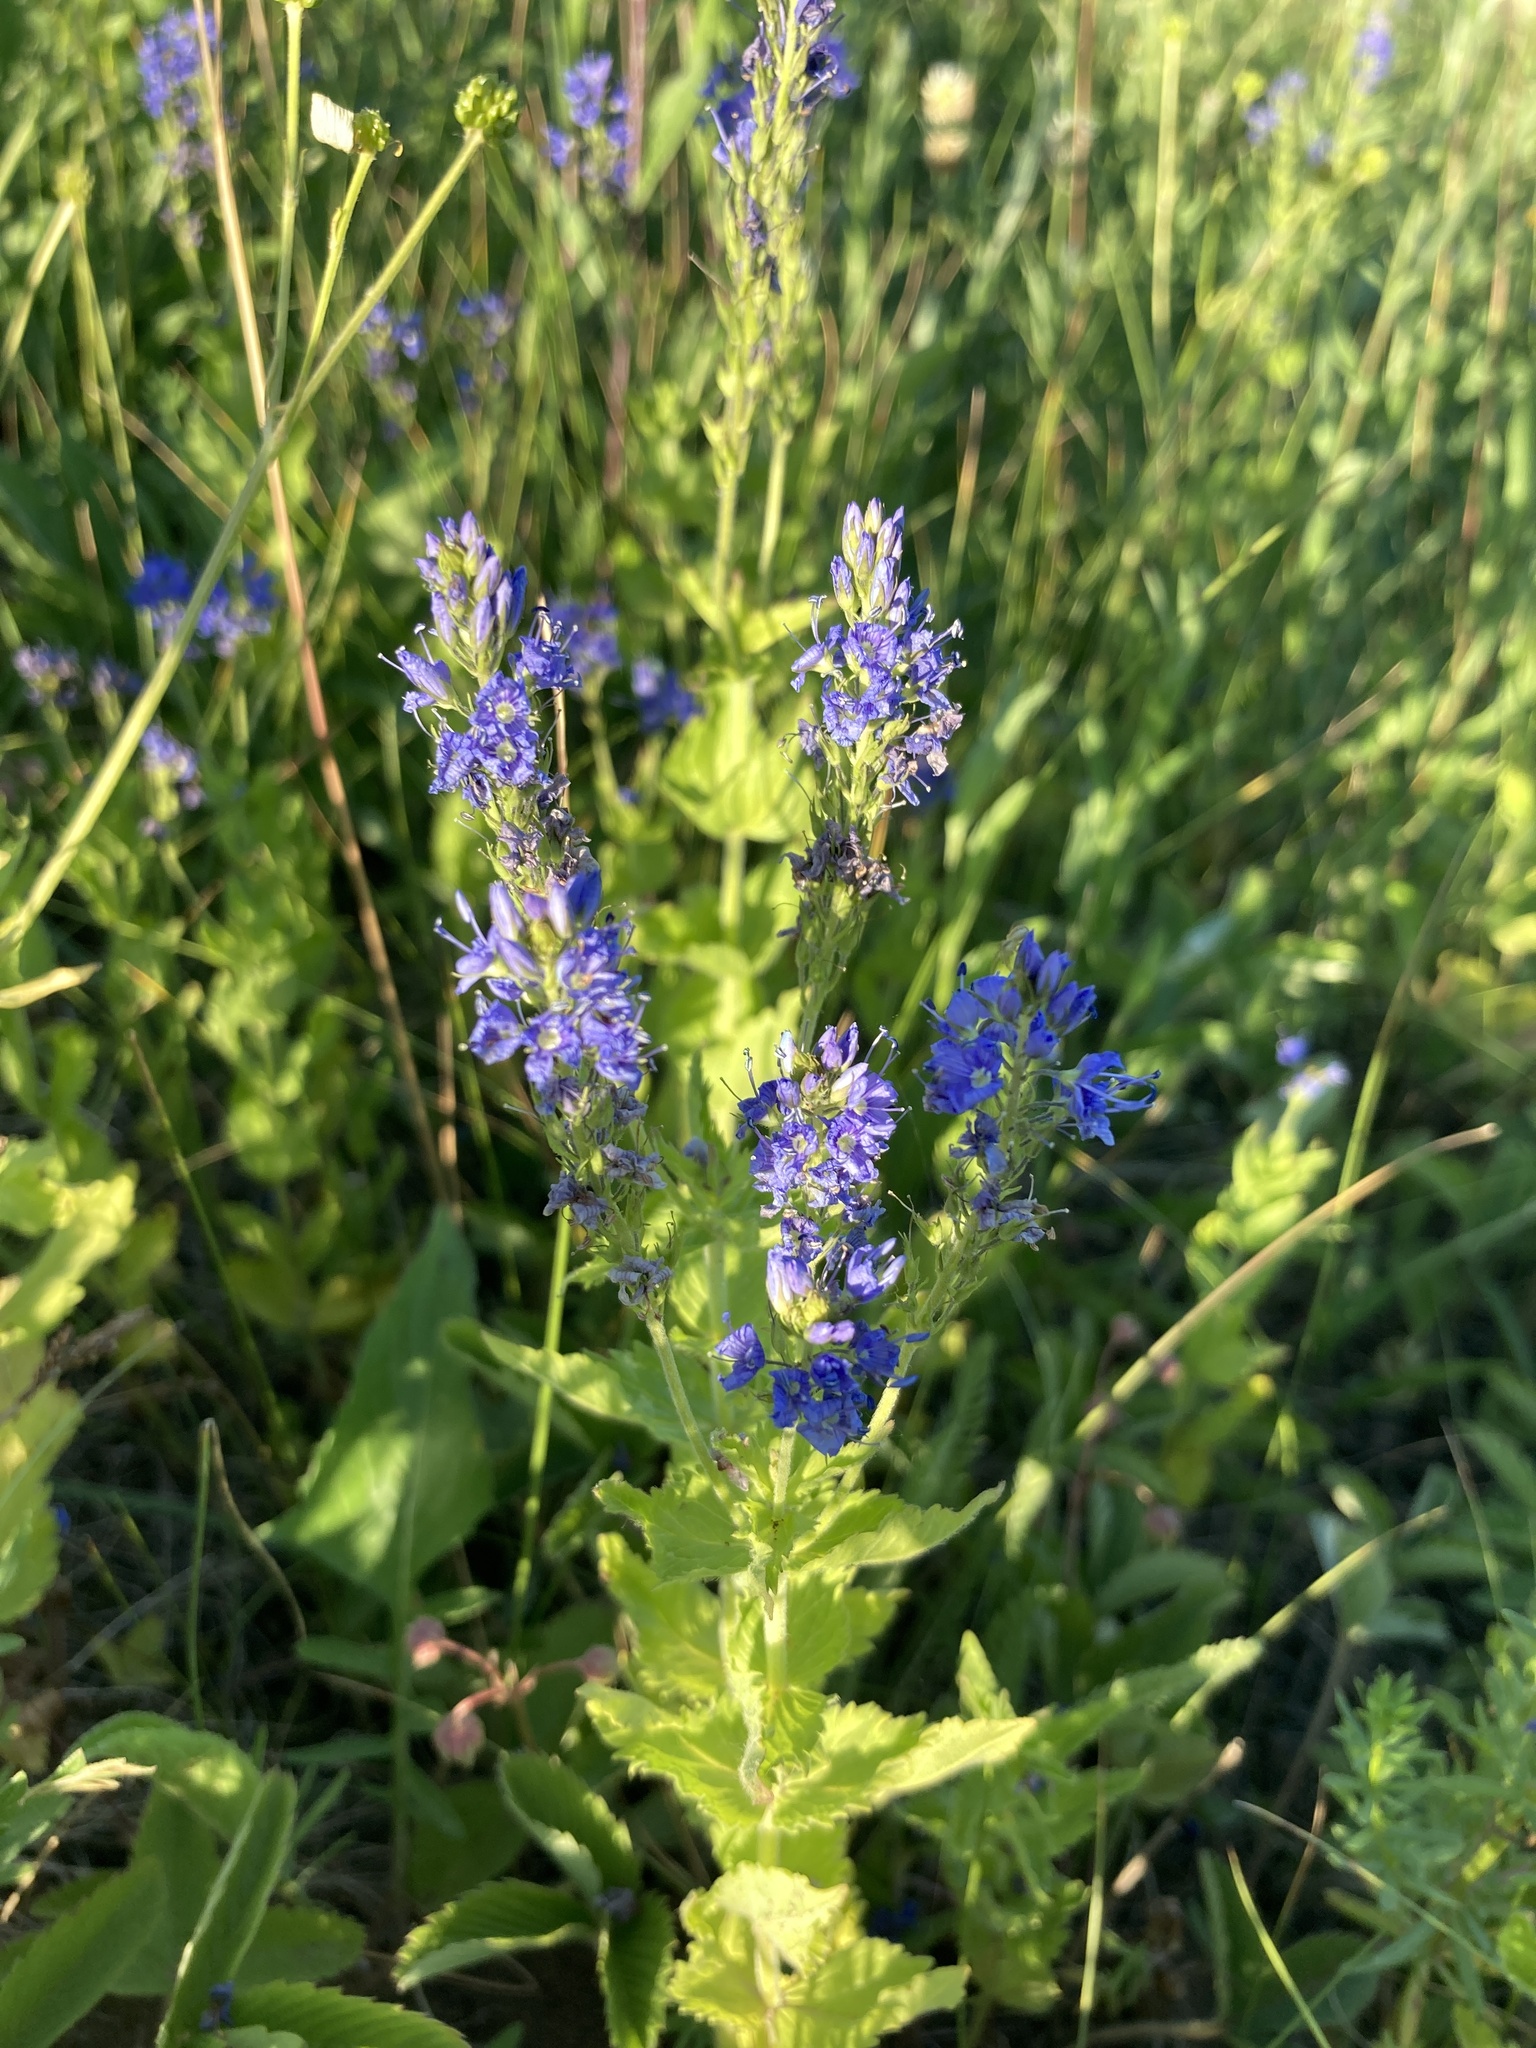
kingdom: Plantae
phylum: Tracheophyta
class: Magnoliopsida
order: Lamiales
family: Plantaginaceae
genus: Veronica
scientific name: Veronica teucrium
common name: Large speedwell
